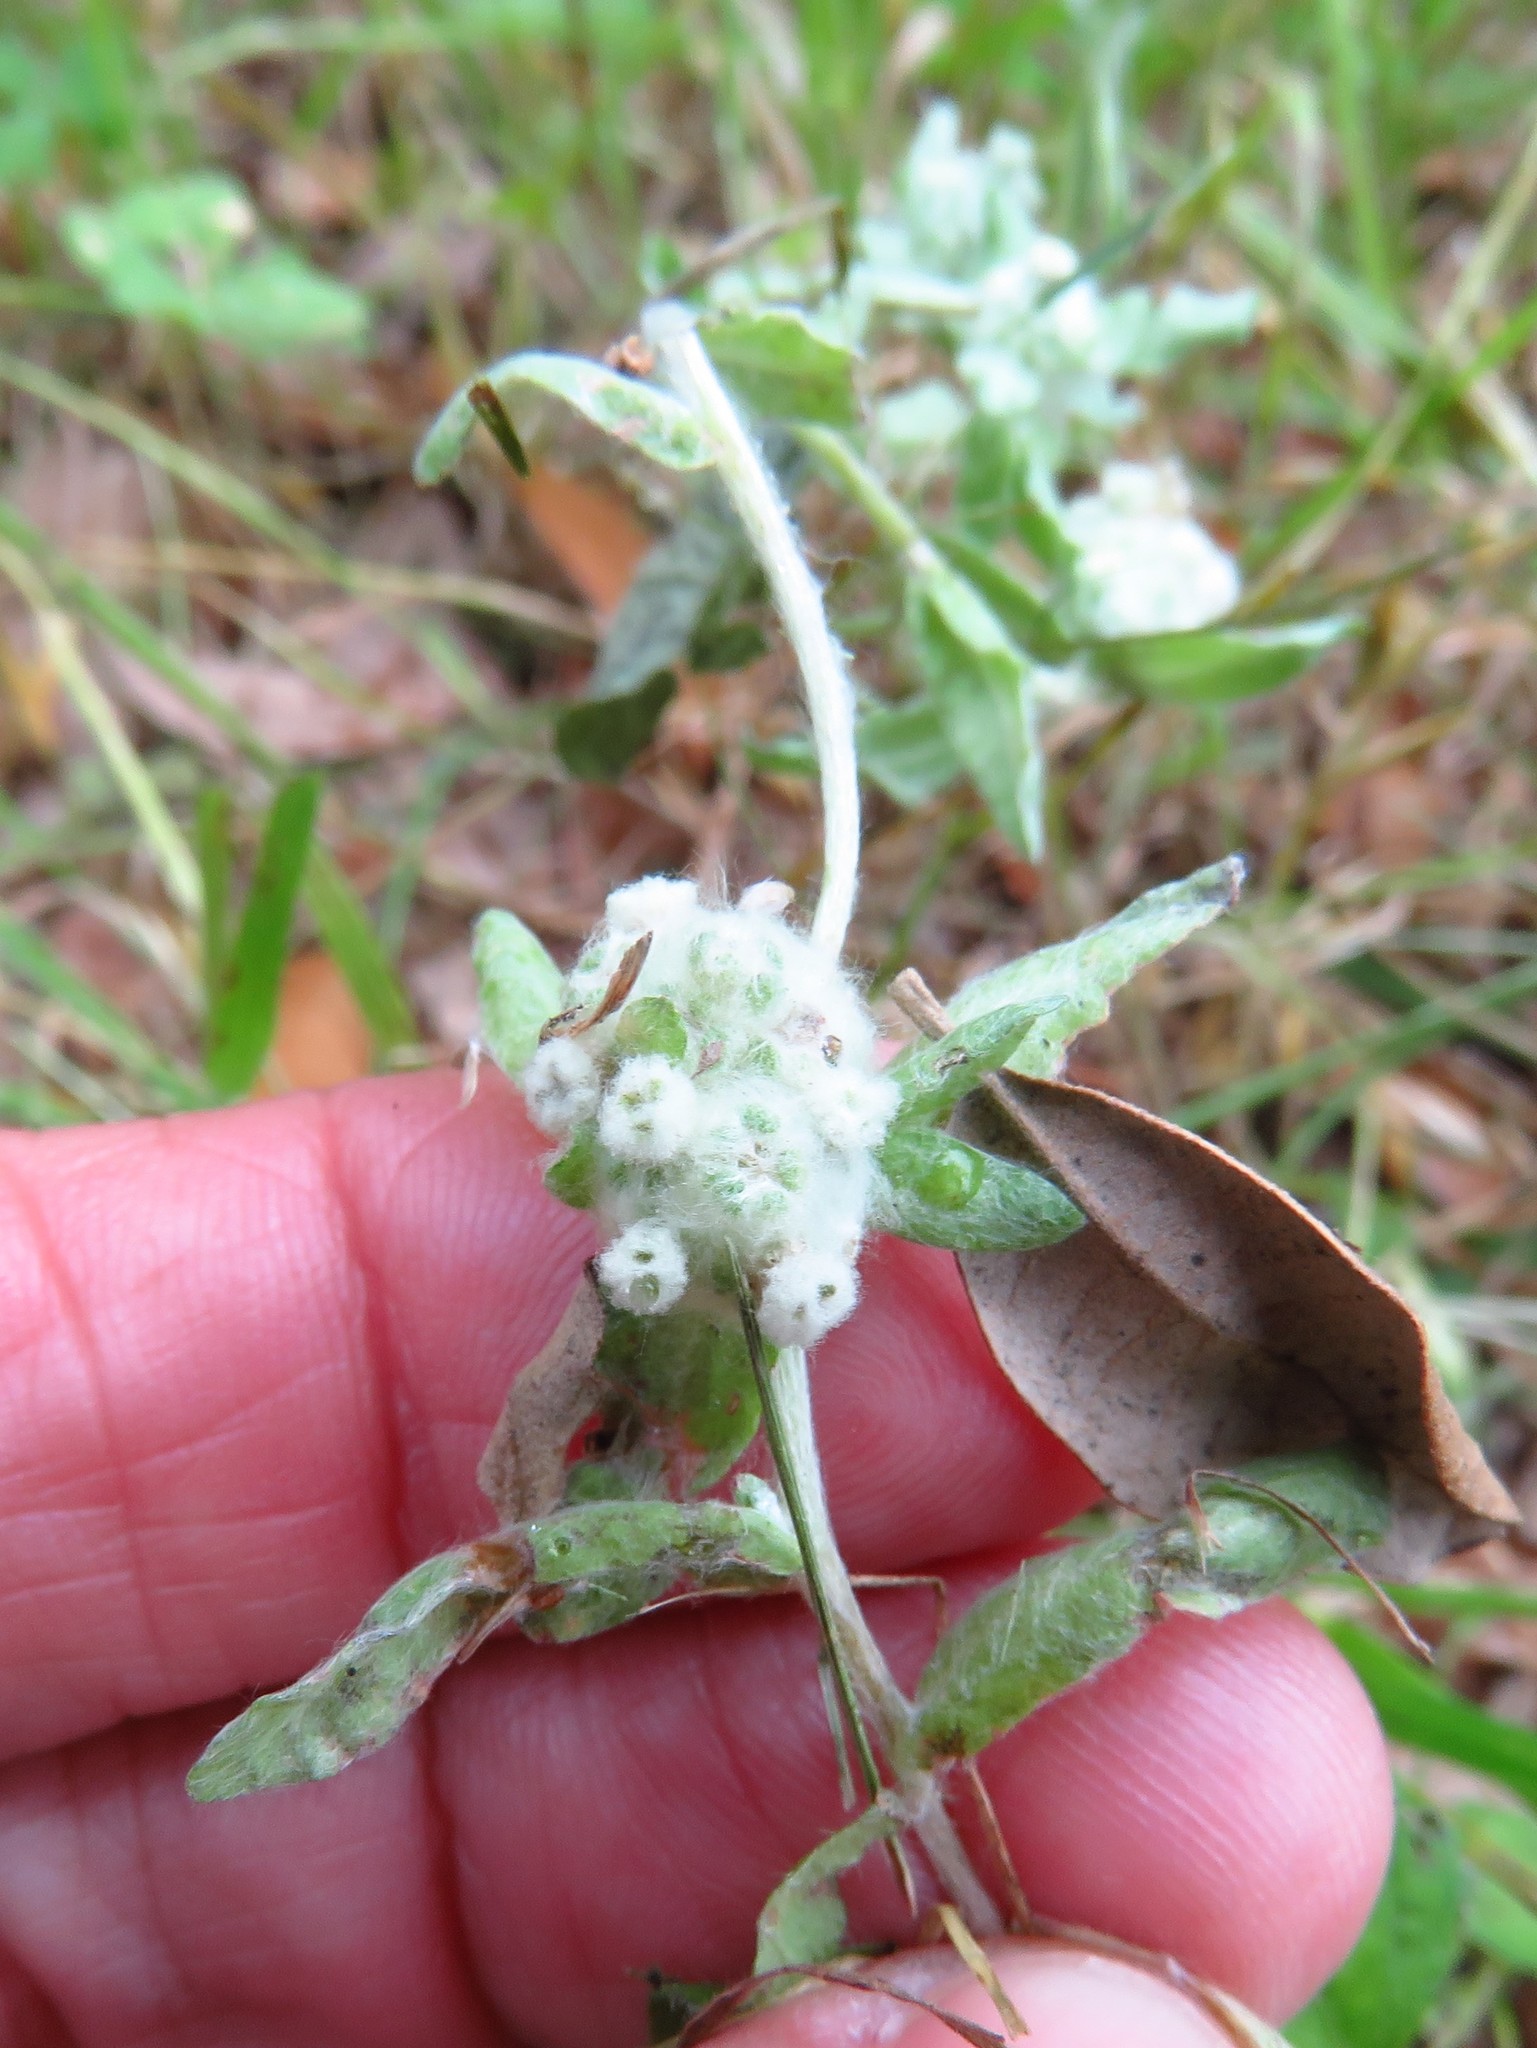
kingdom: Plantae
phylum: Tracheophyta
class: Magnoliopsida
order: Asterales
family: Asteraceae
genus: Diaperia
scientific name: Diaperia verna
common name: Many-stem rabbit-tobacco
